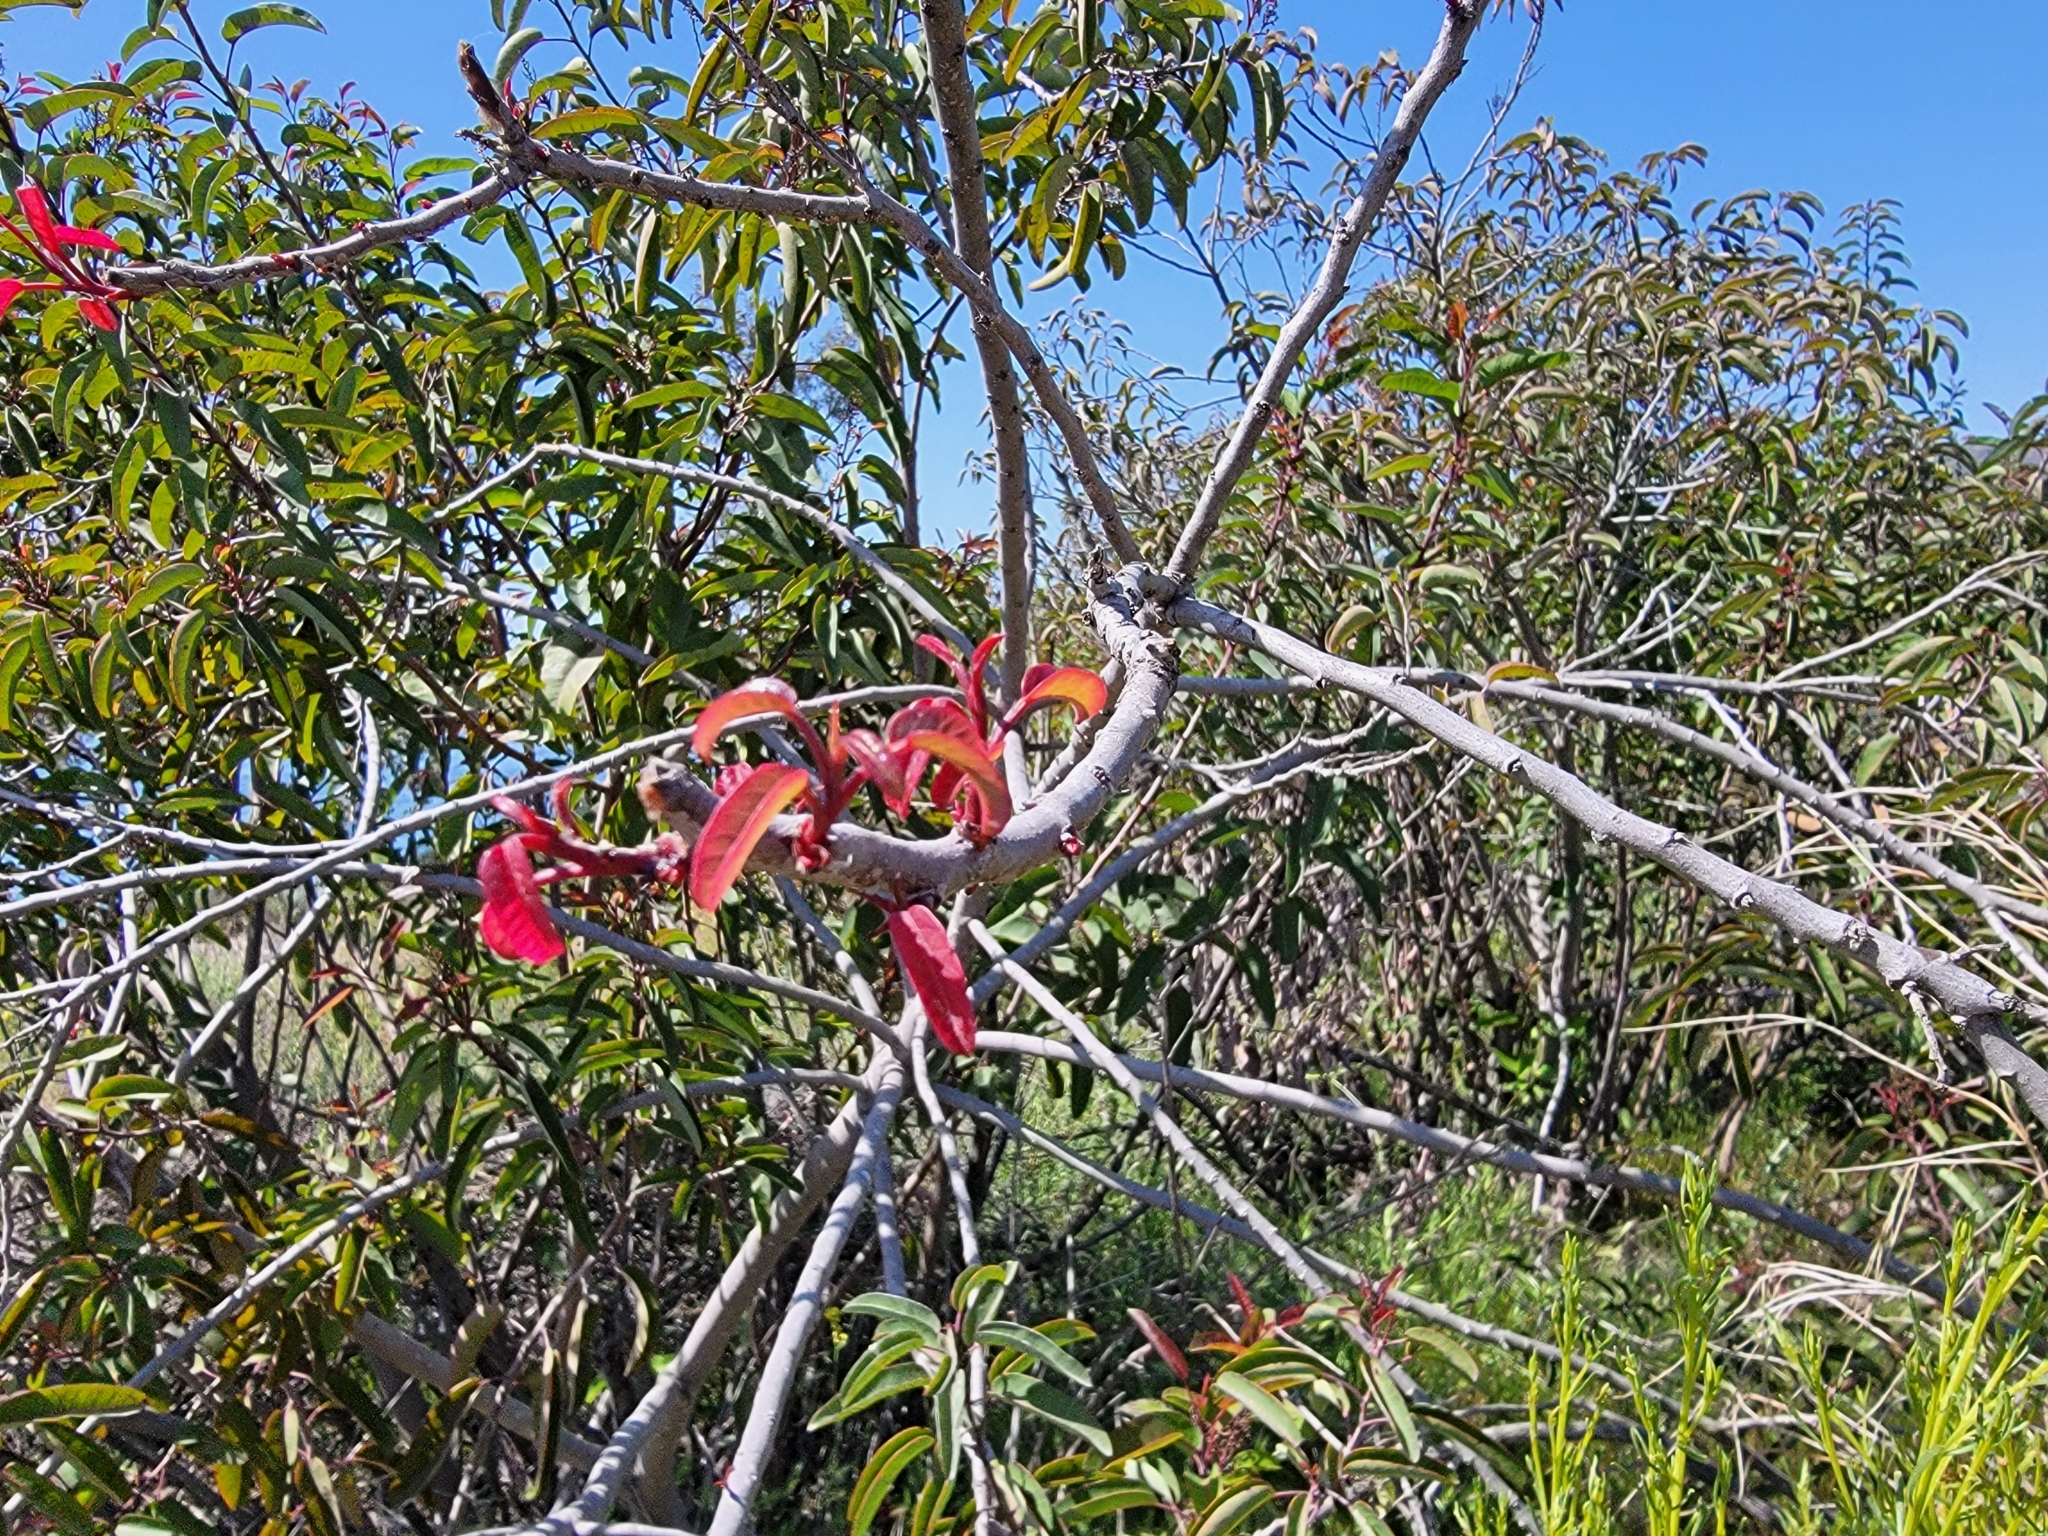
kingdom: Plantae
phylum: Tracheophyta
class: Magnoliopsida
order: Sapindales
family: Anacardiaceae
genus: Malosma
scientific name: Malosma laurina
